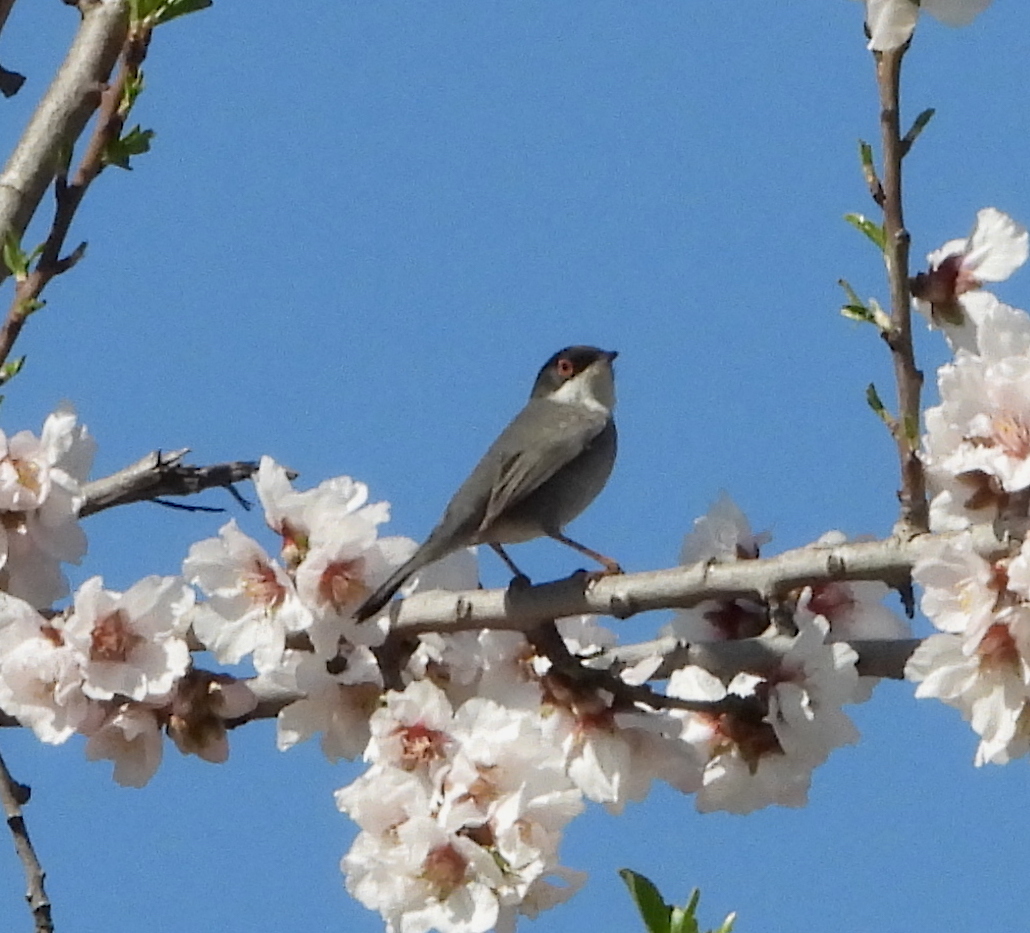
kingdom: Animalia
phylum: Chordata
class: Aves
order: Passeriformes
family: Sylviidae
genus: Curruca
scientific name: Curruca melanocephala
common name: Sardinian warbler
